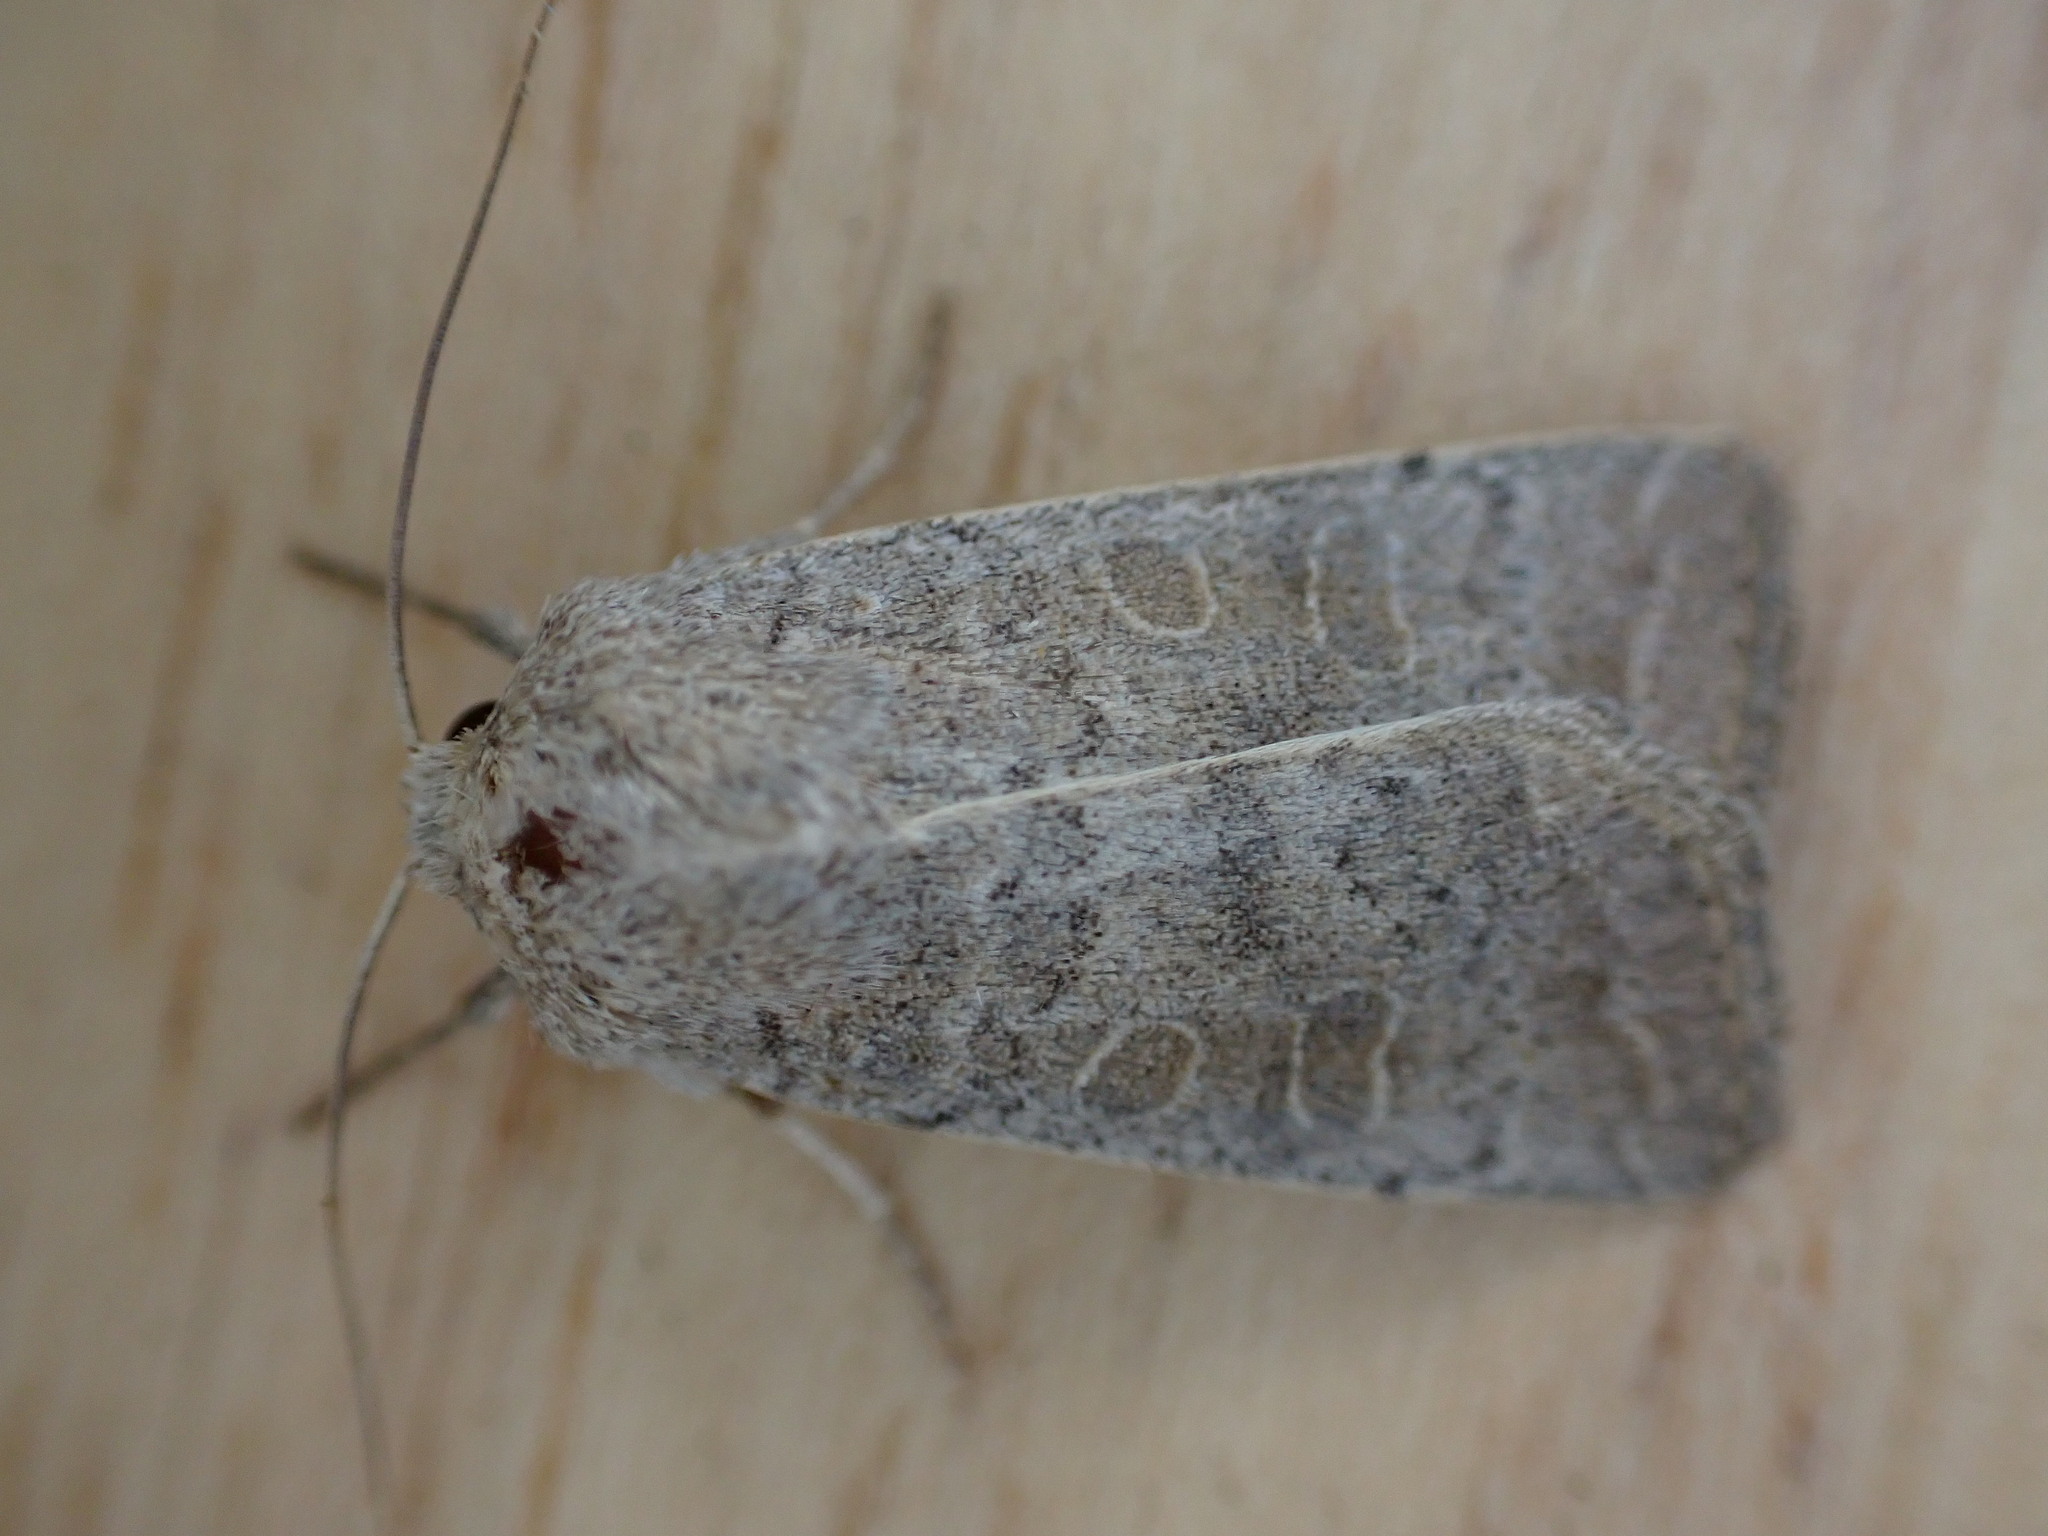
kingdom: Animalia
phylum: Arthropoda
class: Insecta
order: Lepidoptera
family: Noctuidae
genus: Hoplodrina
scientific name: Hoplodrina ambigua
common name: Vine's rustic
